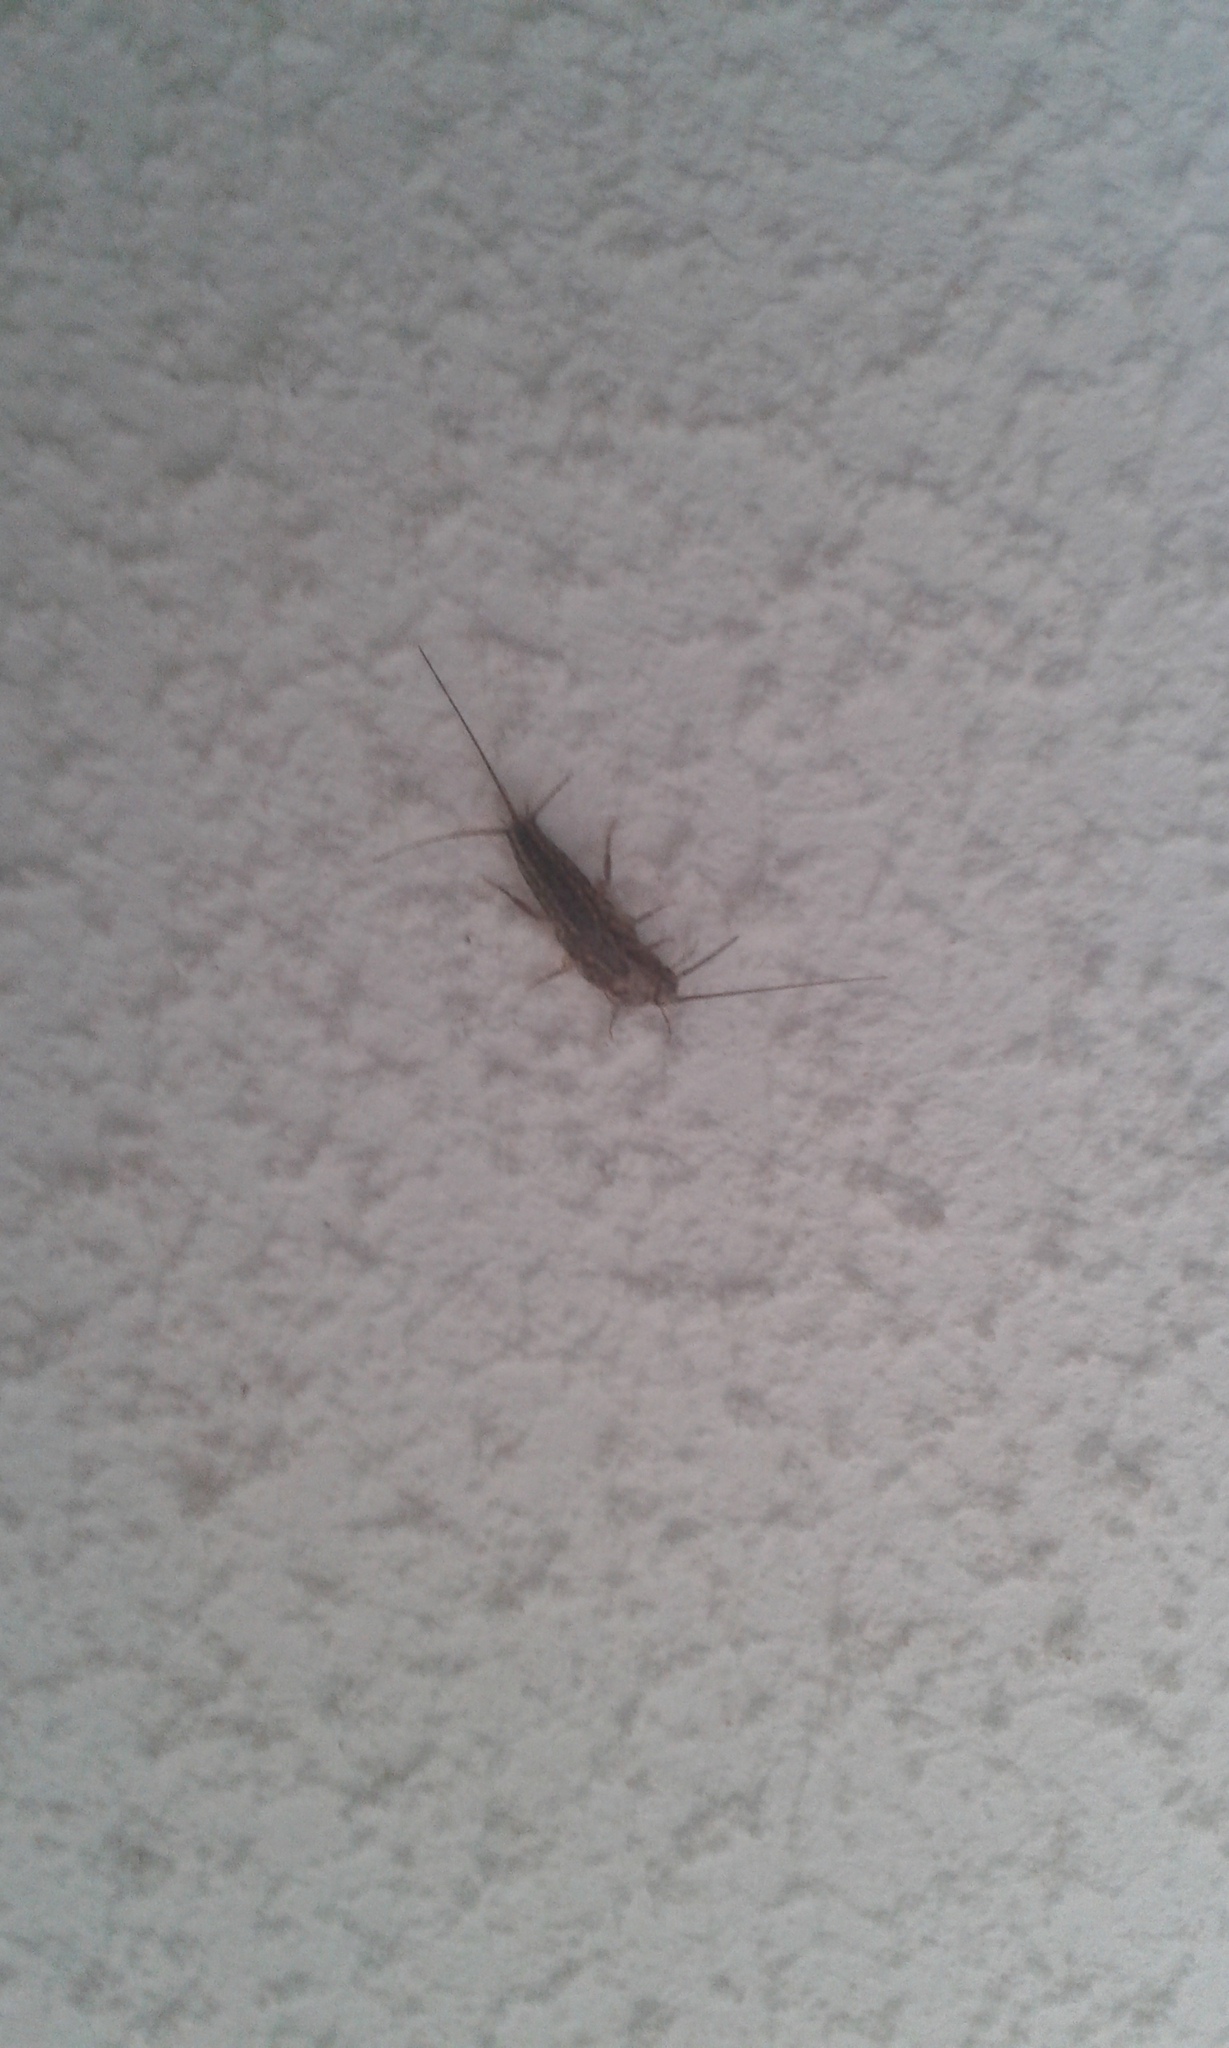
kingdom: Animalia
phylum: Arthropoda
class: Insecta
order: Zygentoma
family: Lepismatidae
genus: Ctenolepisma
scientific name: Ctenolepisma lineata
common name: Four-lined silverfish
